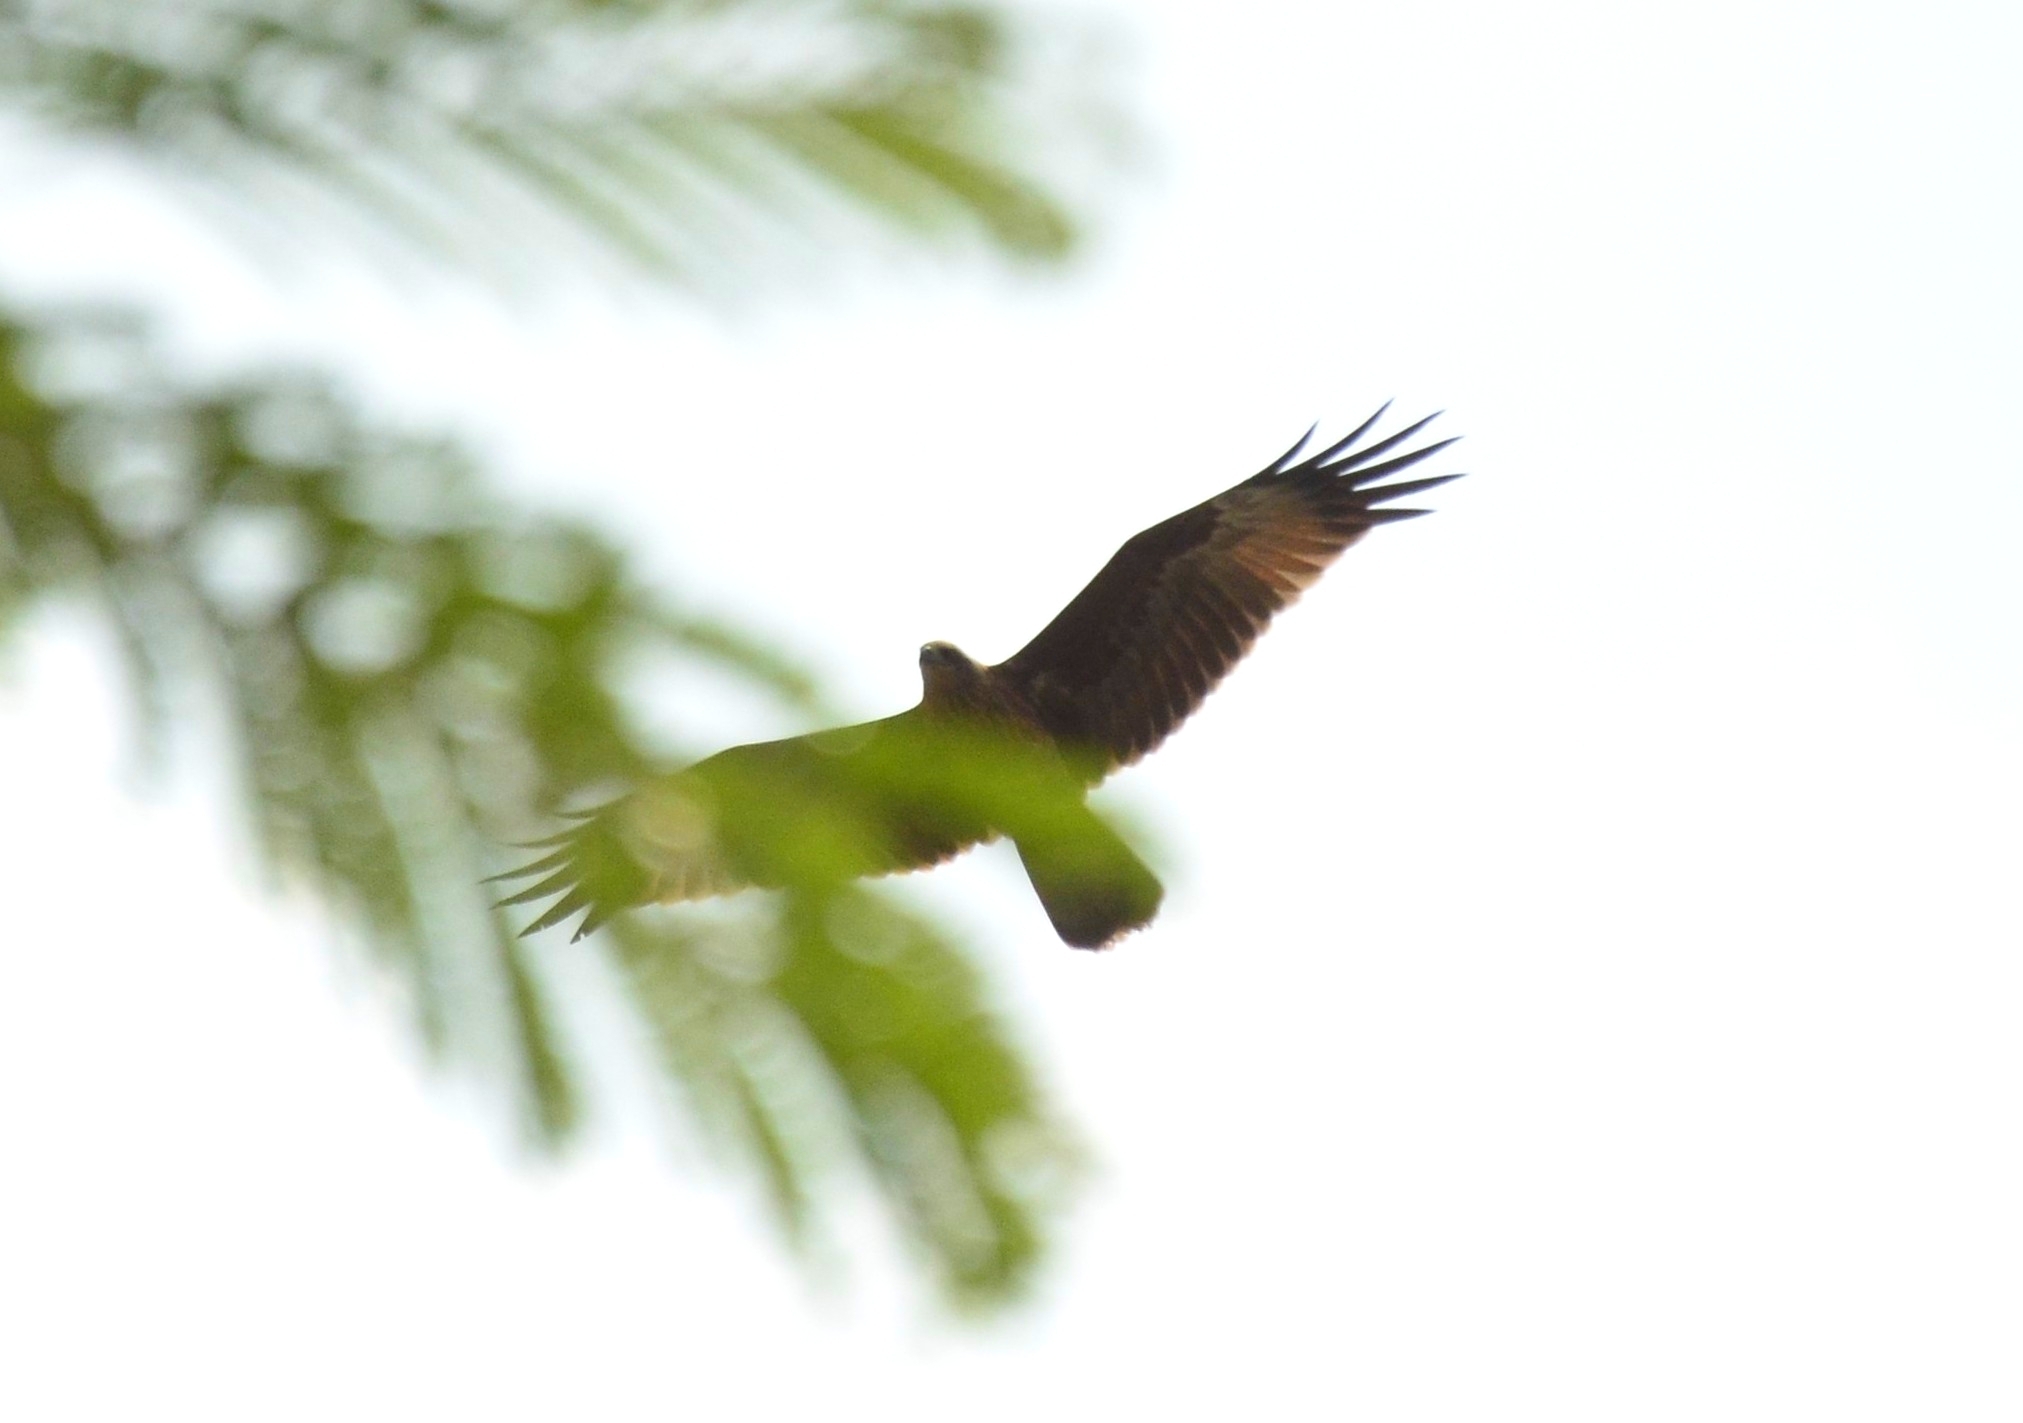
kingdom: Animalia
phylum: Chordata
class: Aves
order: Accipitriformes
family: Accipitridae
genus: Haliastur
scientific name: Haliastur indus
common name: Brahminy kite
